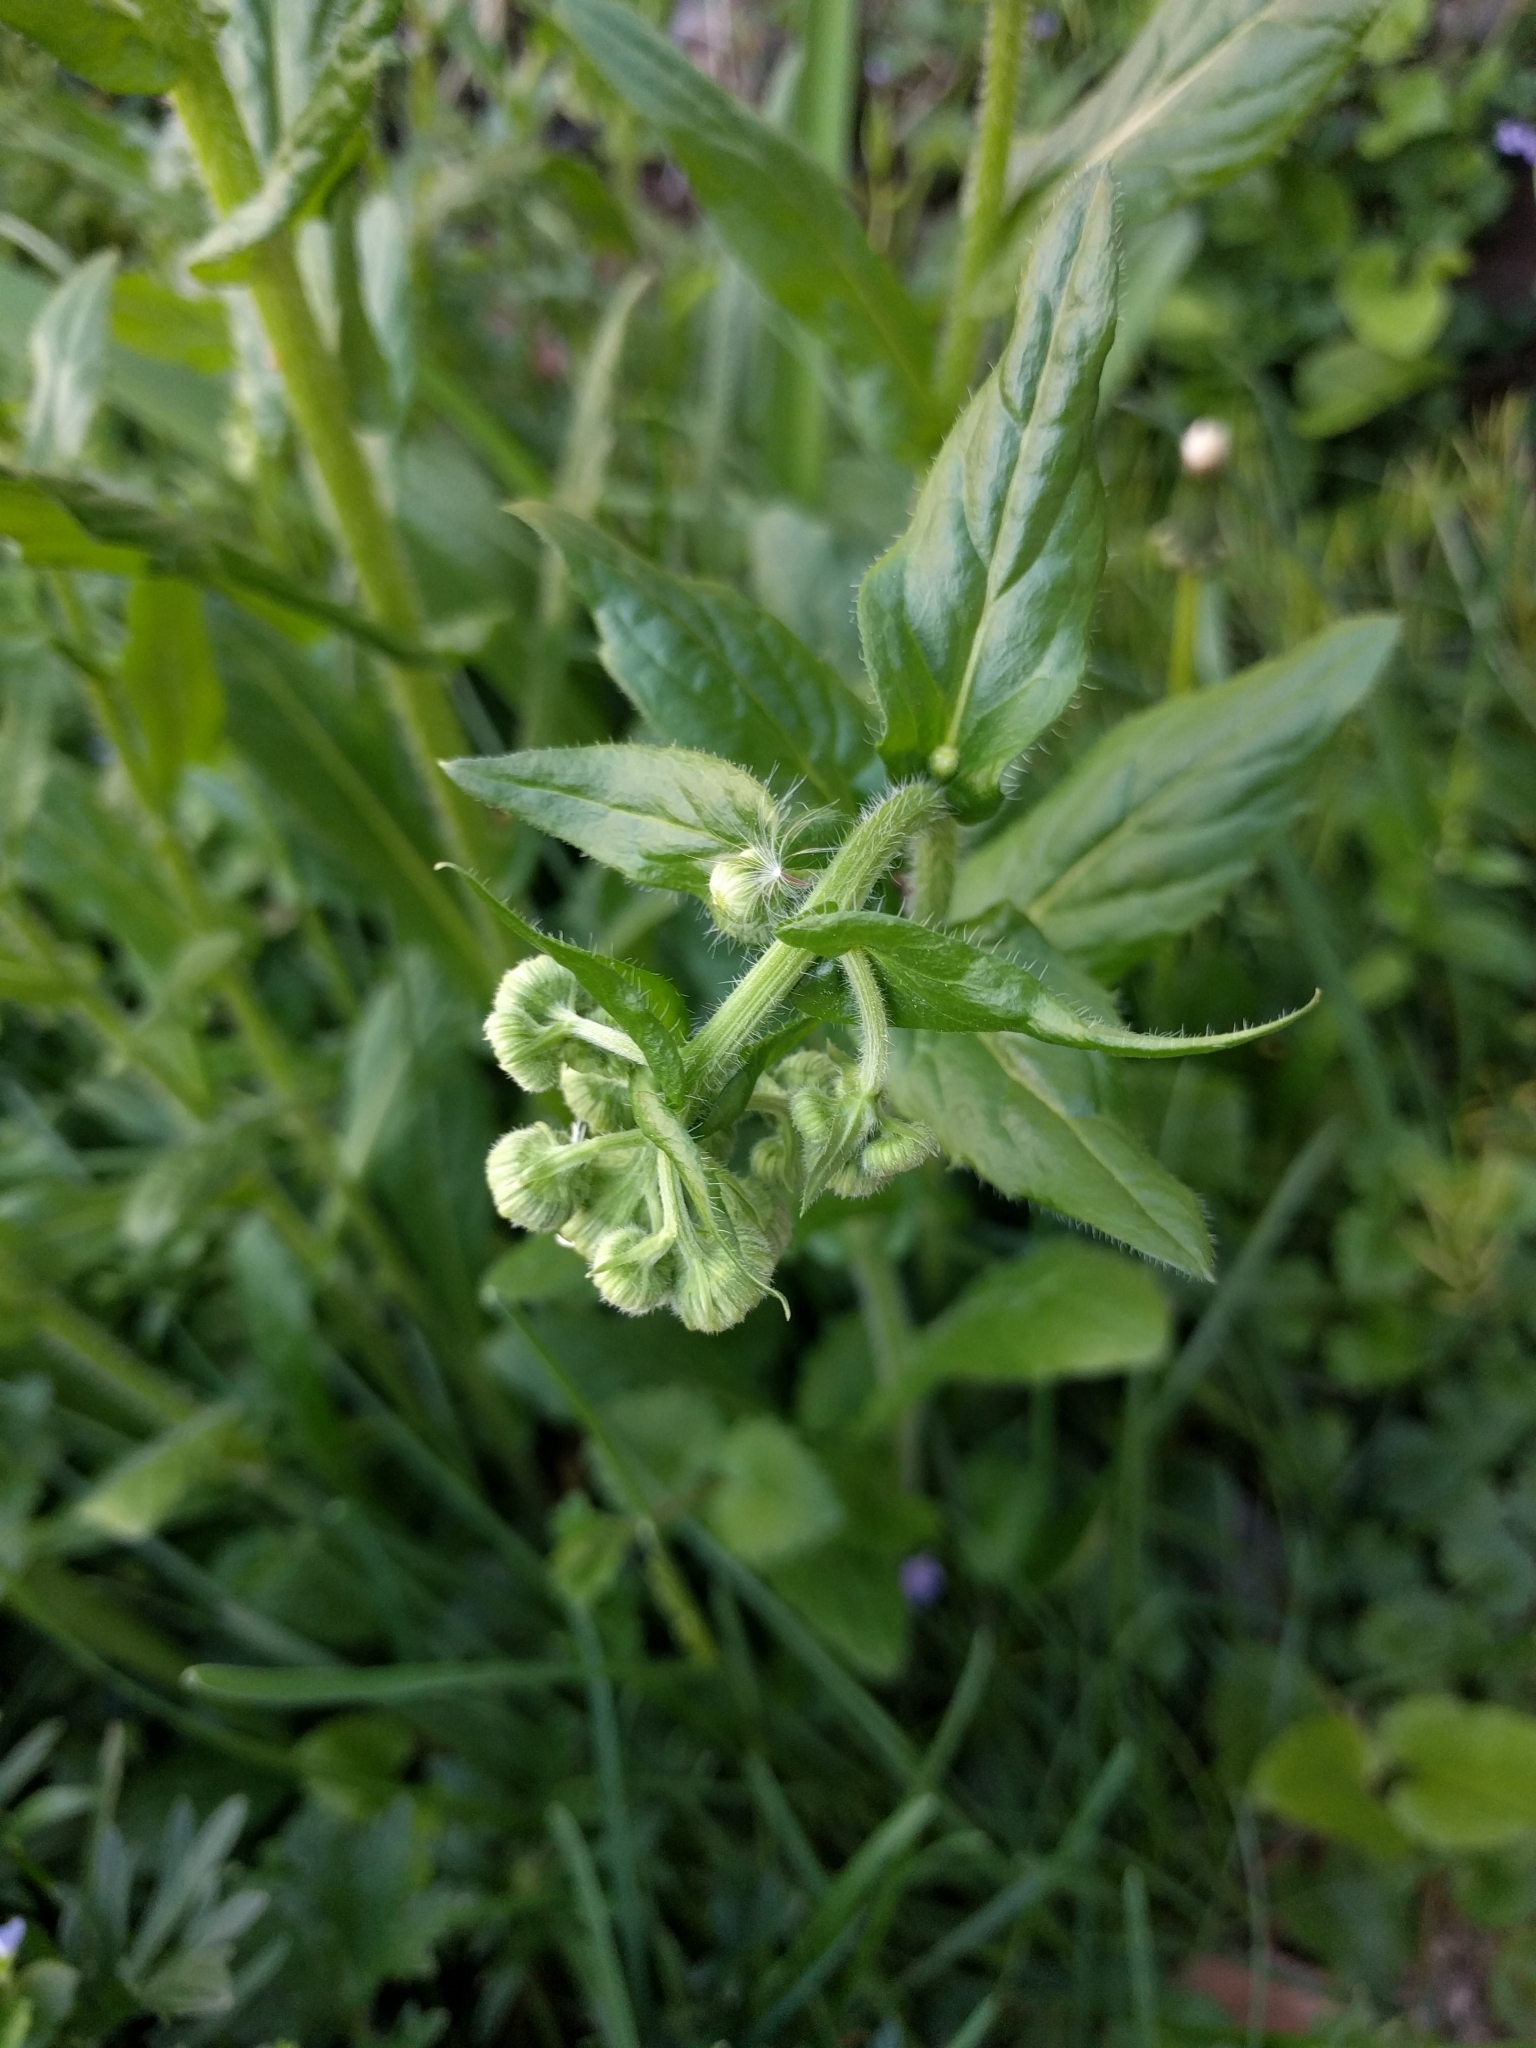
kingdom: Plantae
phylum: Tracheophyta
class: Magnoliopsida
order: Asterales
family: Asteraceae
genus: Erigeron
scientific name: Erigeron philadelphicus
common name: Robin's-plantain
